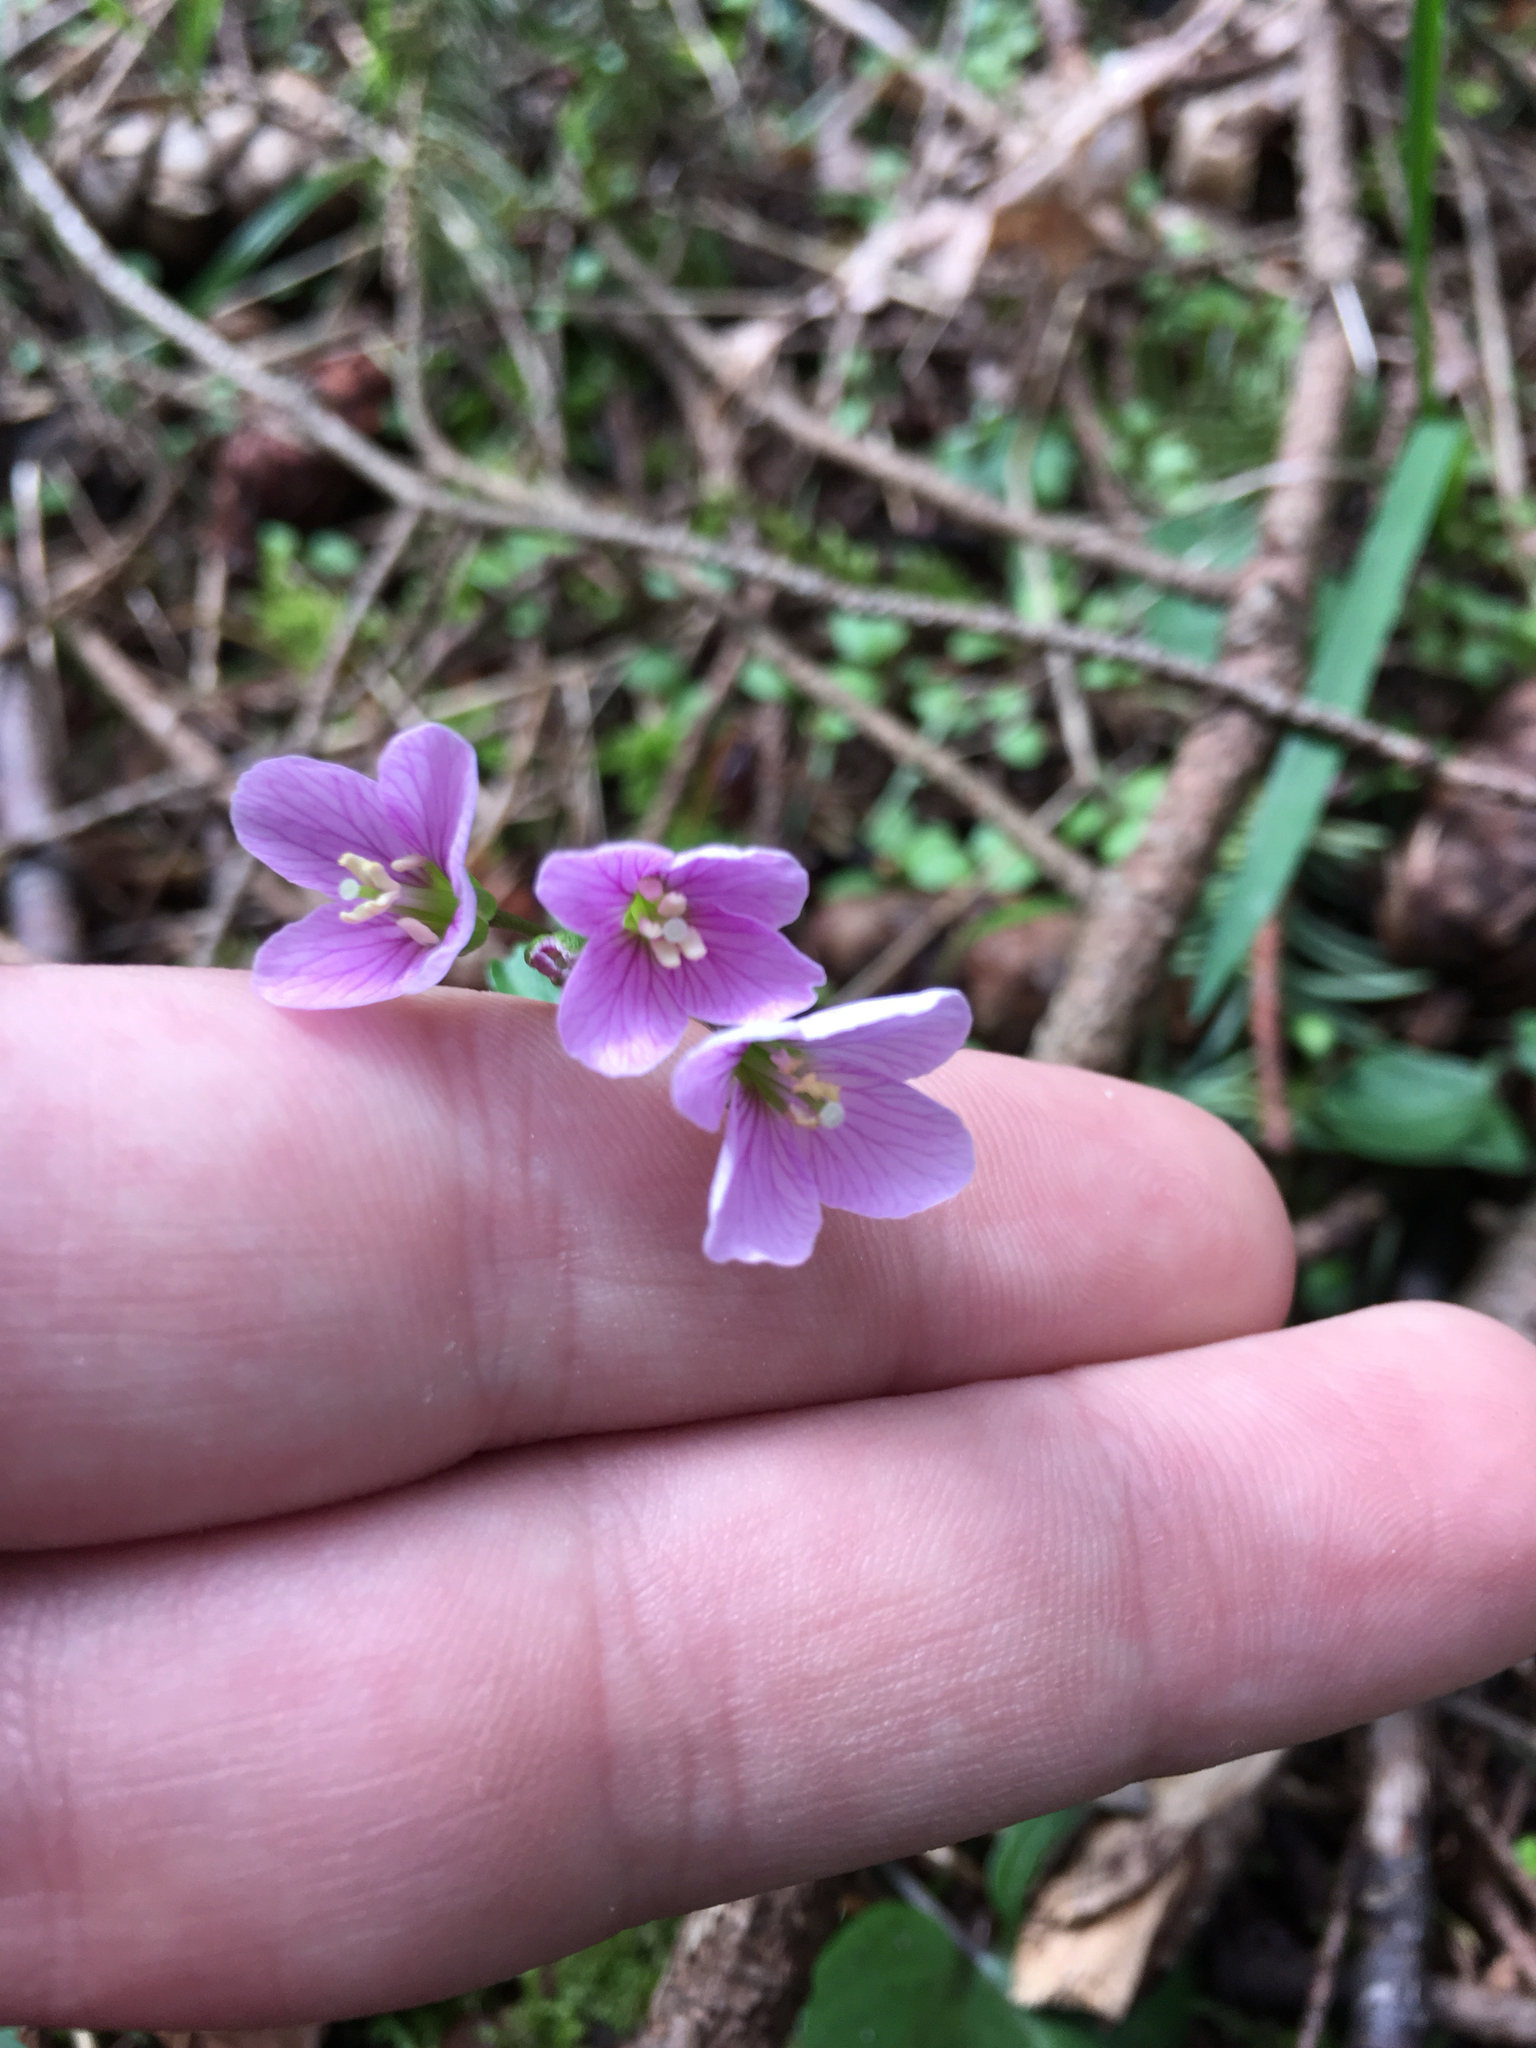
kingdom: Plantae
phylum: Tracheophyta
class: Magnoliopsida
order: Brassicales
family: Brassicaceae
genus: Cardamine
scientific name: Cardamine nuttallii
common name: Nuttall's toothwort
